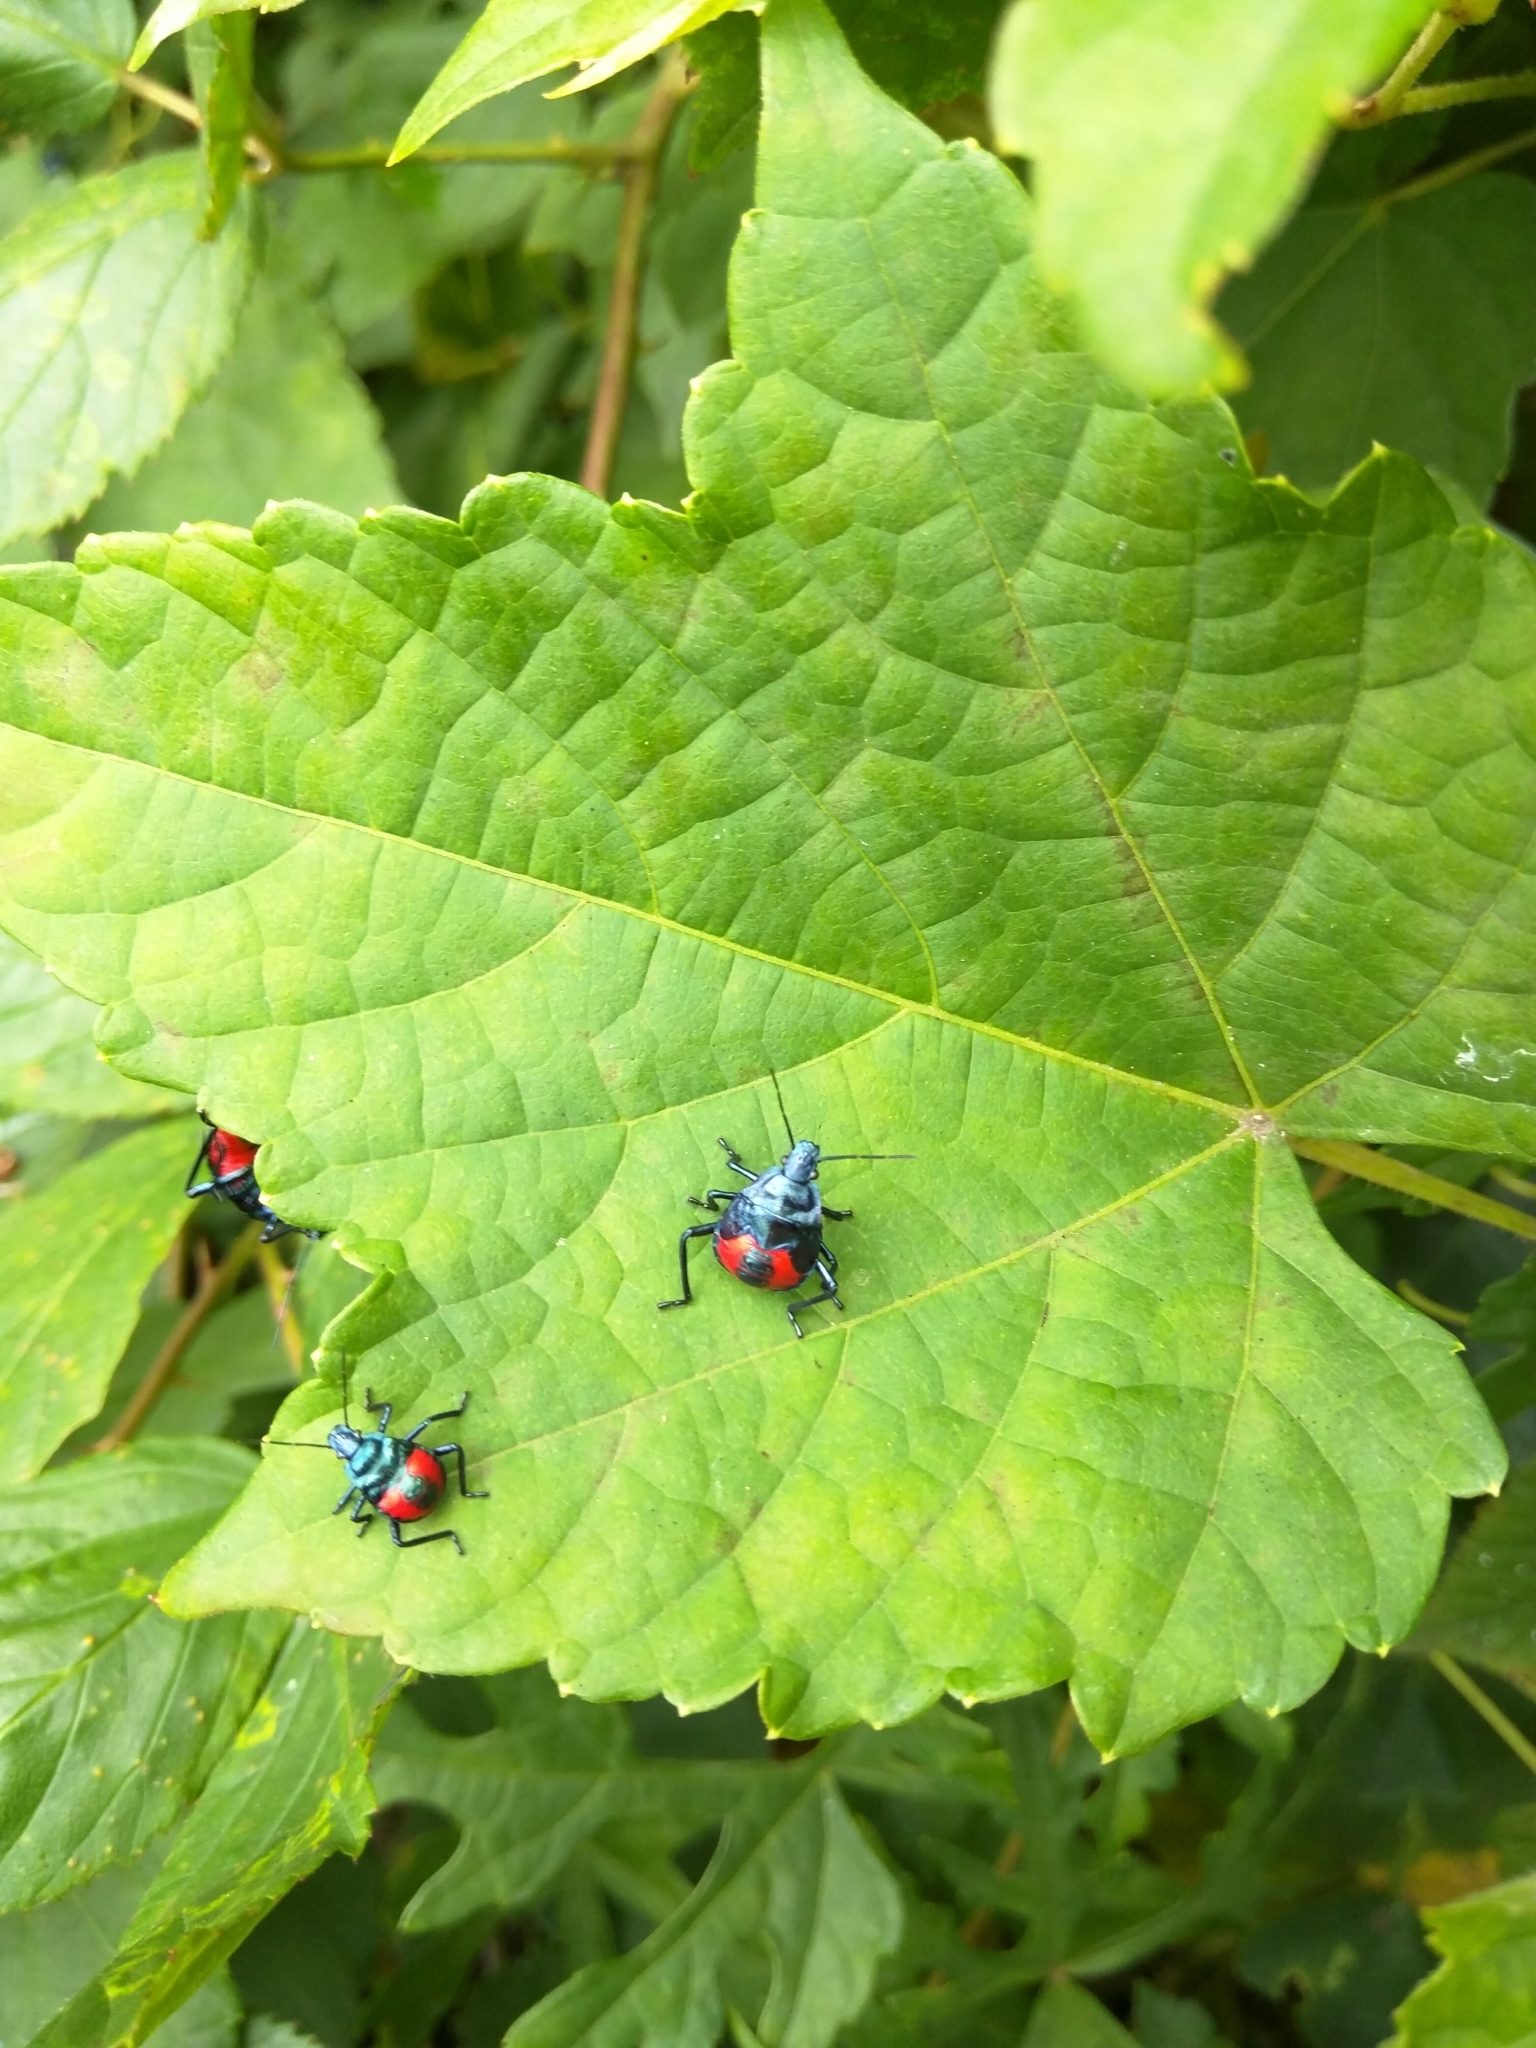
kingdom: Animalia
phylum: Arthropoda
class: Insecta
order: Hemiptera
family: Pentatomidae
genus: Euthyrhynchus
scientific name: Euthyrhynchus floridanus
